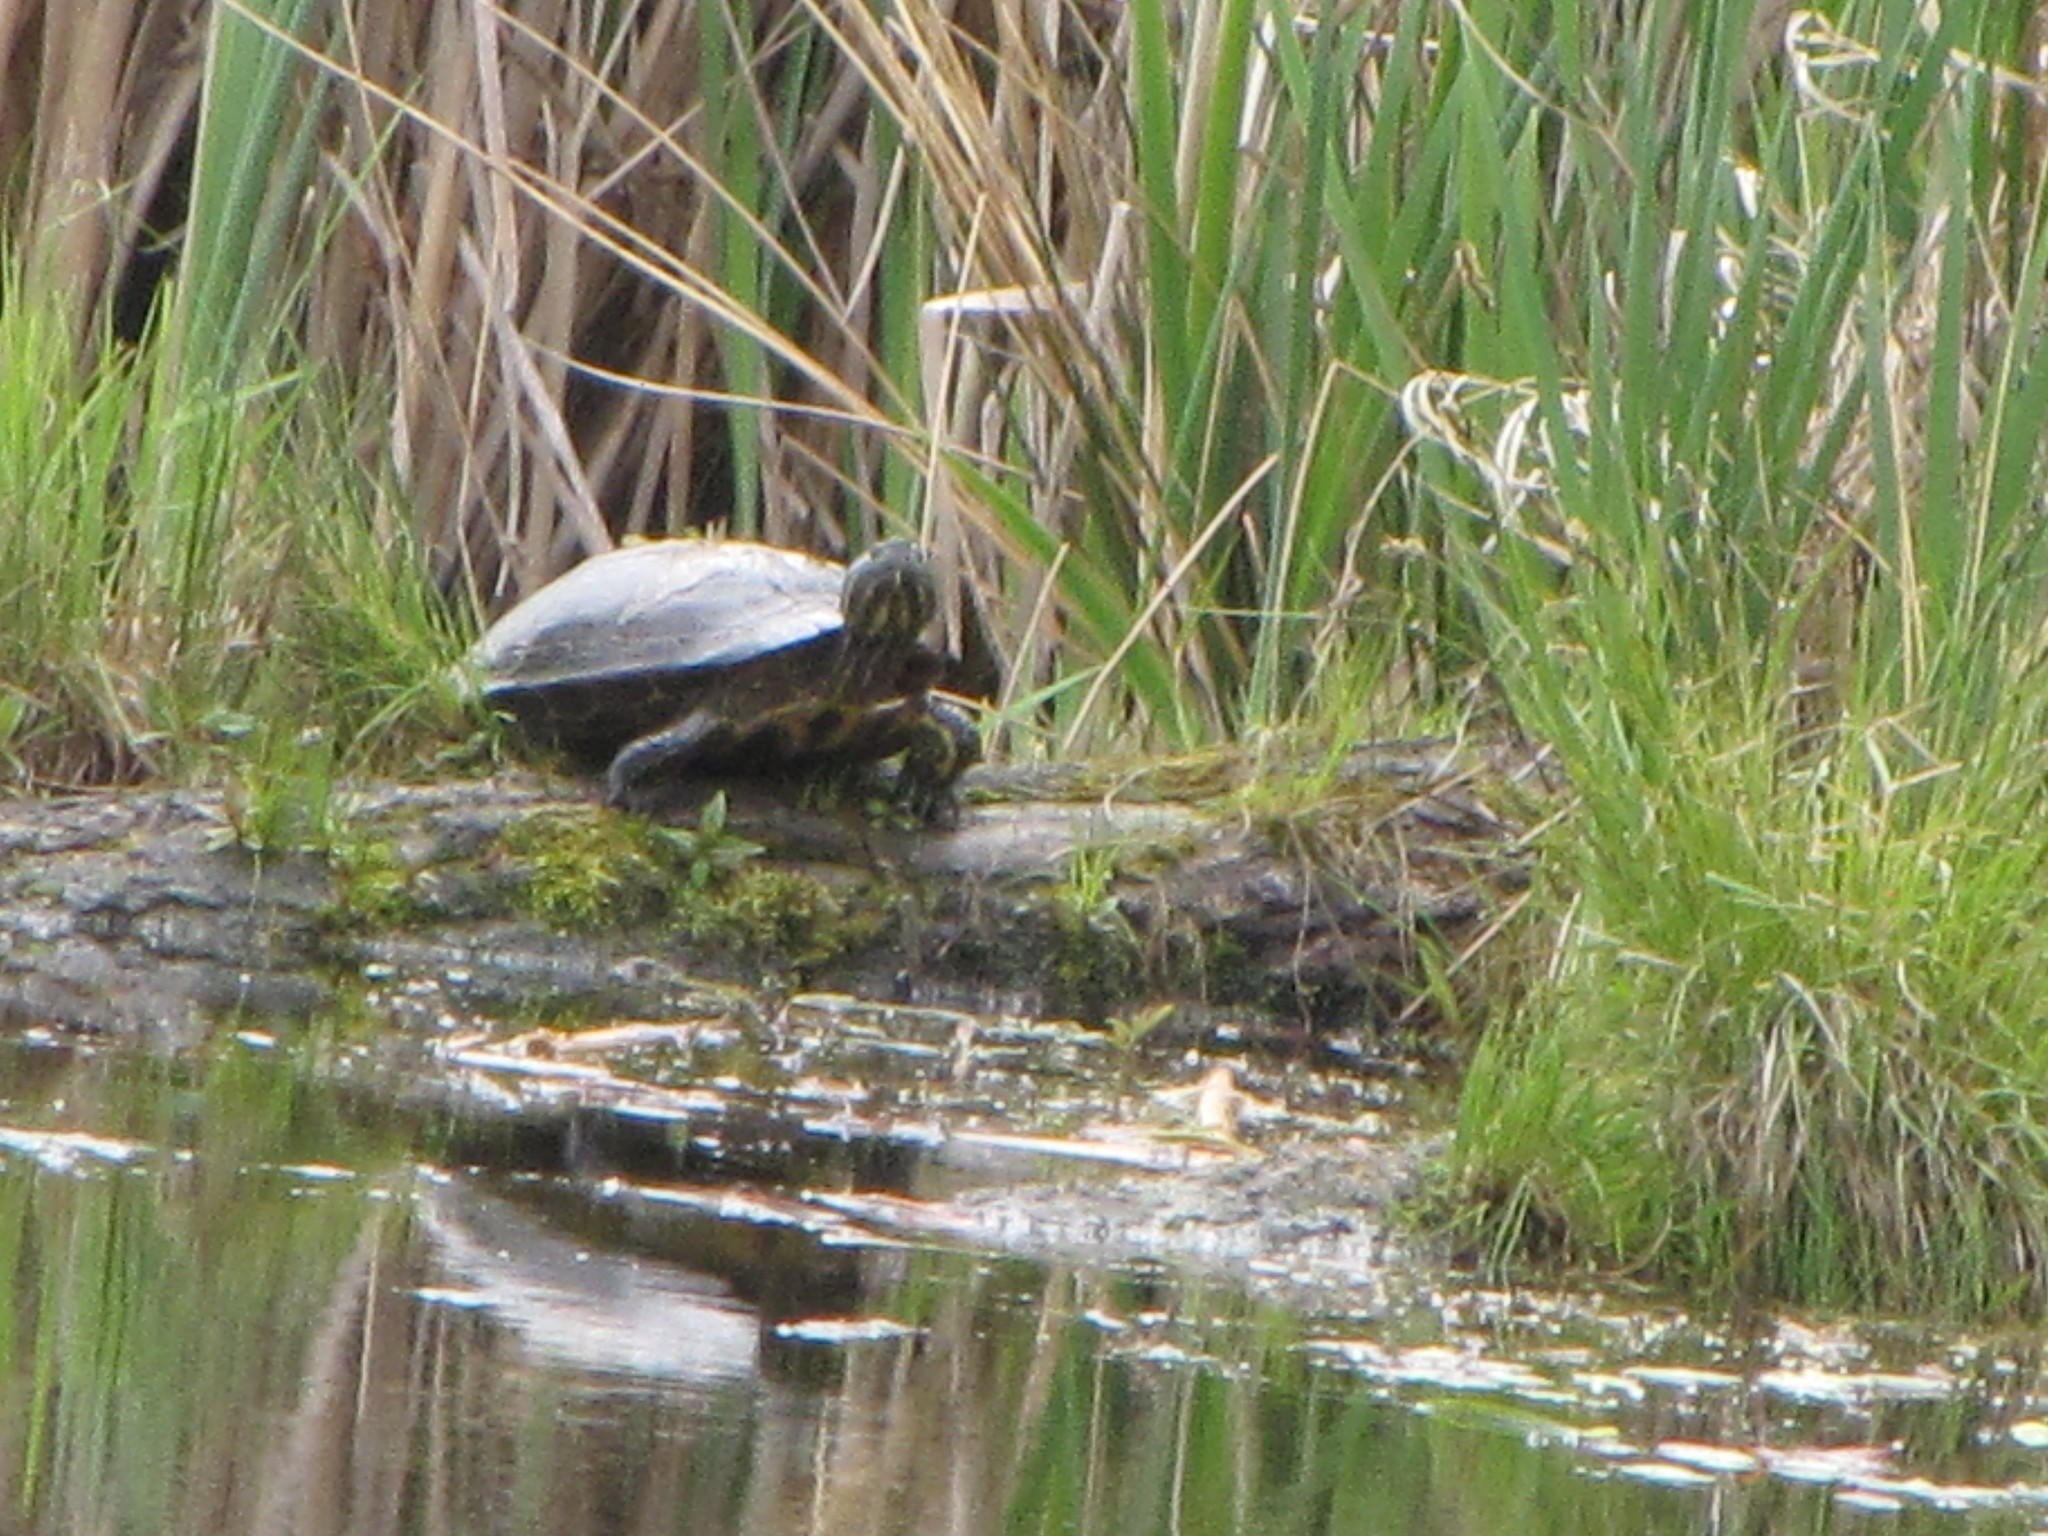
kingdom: Animalia
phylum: Chordata
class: Testudines
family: Emydidae
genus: Trachemys
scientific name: Trachemys scripta
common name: Slider
